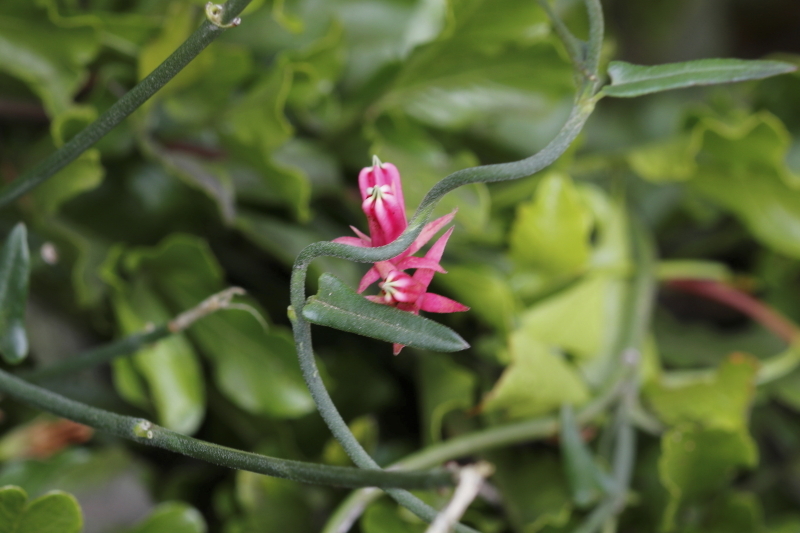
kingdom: Plantae
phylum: Tracheophyta
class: Magnoliopsida
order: Gentianales
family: Apocynaceae
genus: Microloma
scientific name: Microloma sagittatum
